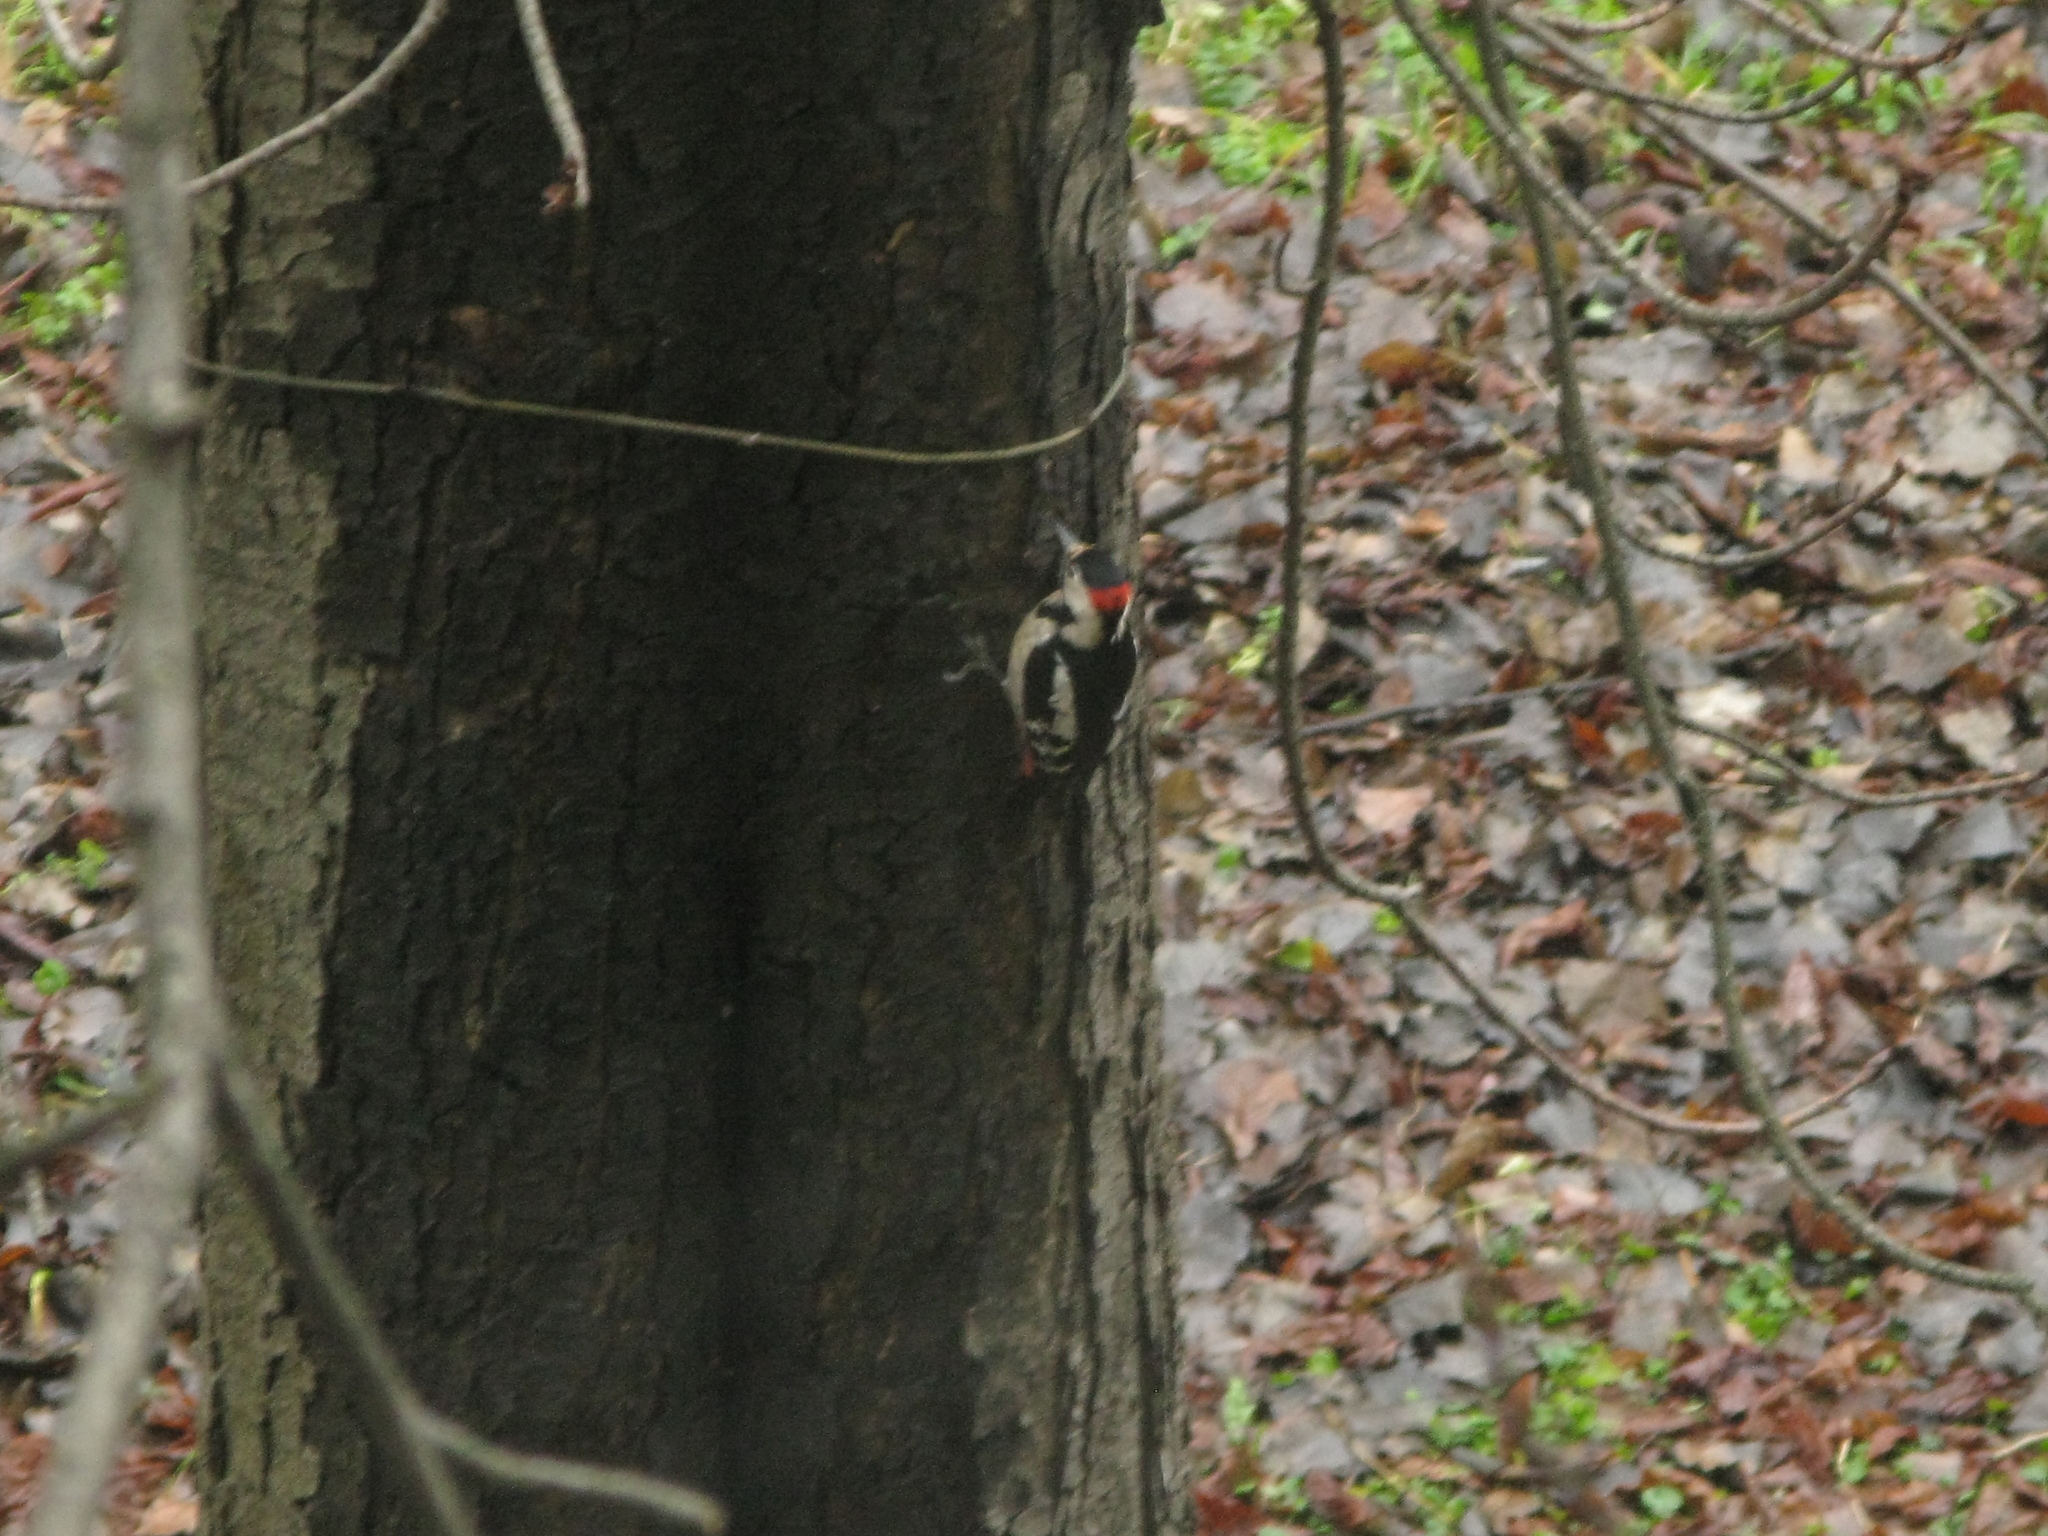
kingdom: Animalia
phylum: Chordata
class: Aves
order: Piciformes
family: Picidae
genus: Dendrocopos
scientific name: Dendrocopos syriacus
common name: Syrian woodpecker
